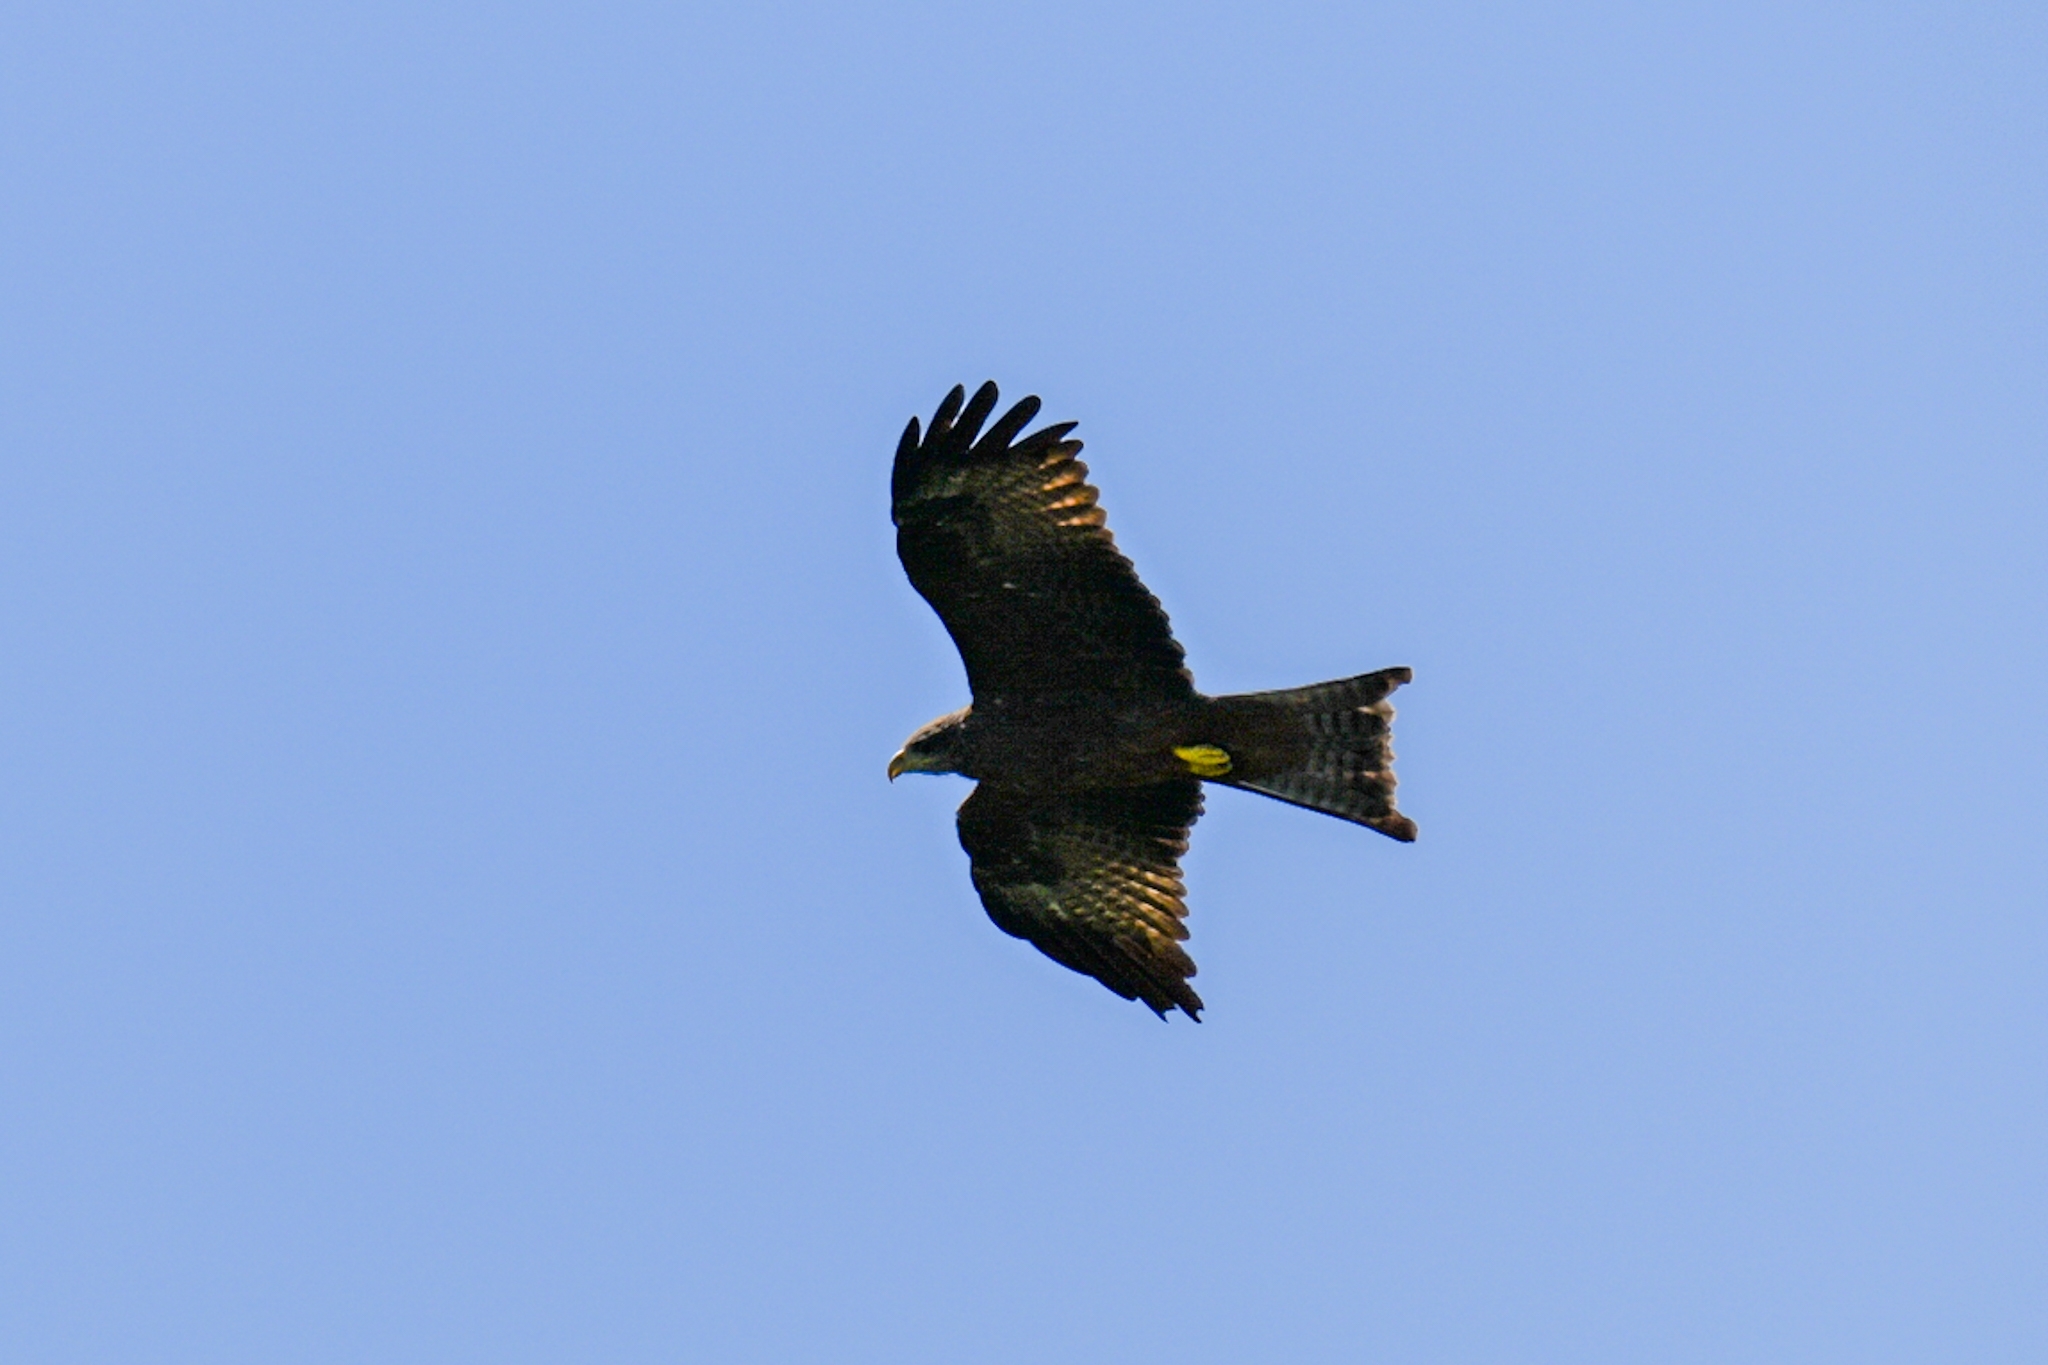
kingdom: Animalia
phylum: Chordata
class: Aves
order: Accipitriformes
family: Accipitridae
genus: Milvus
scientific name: Milvus migrans
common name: Black kite
